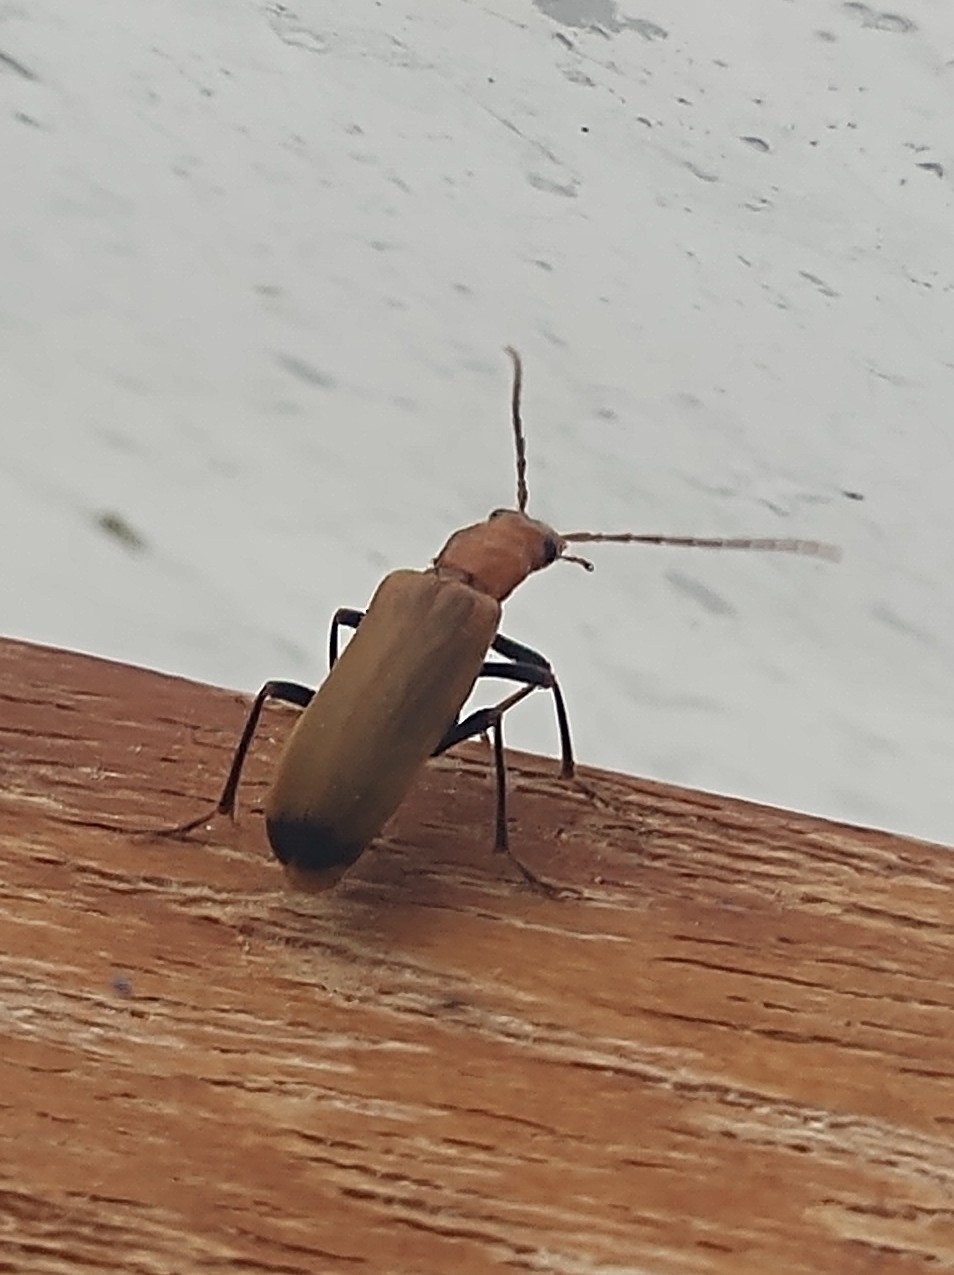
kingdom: Animalia
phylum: Arthropoda
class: Insecta
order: Coleoptera
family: Oedemeridae
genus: Nacerdes
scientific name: Nacerdes melanura
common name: Wharf borer
